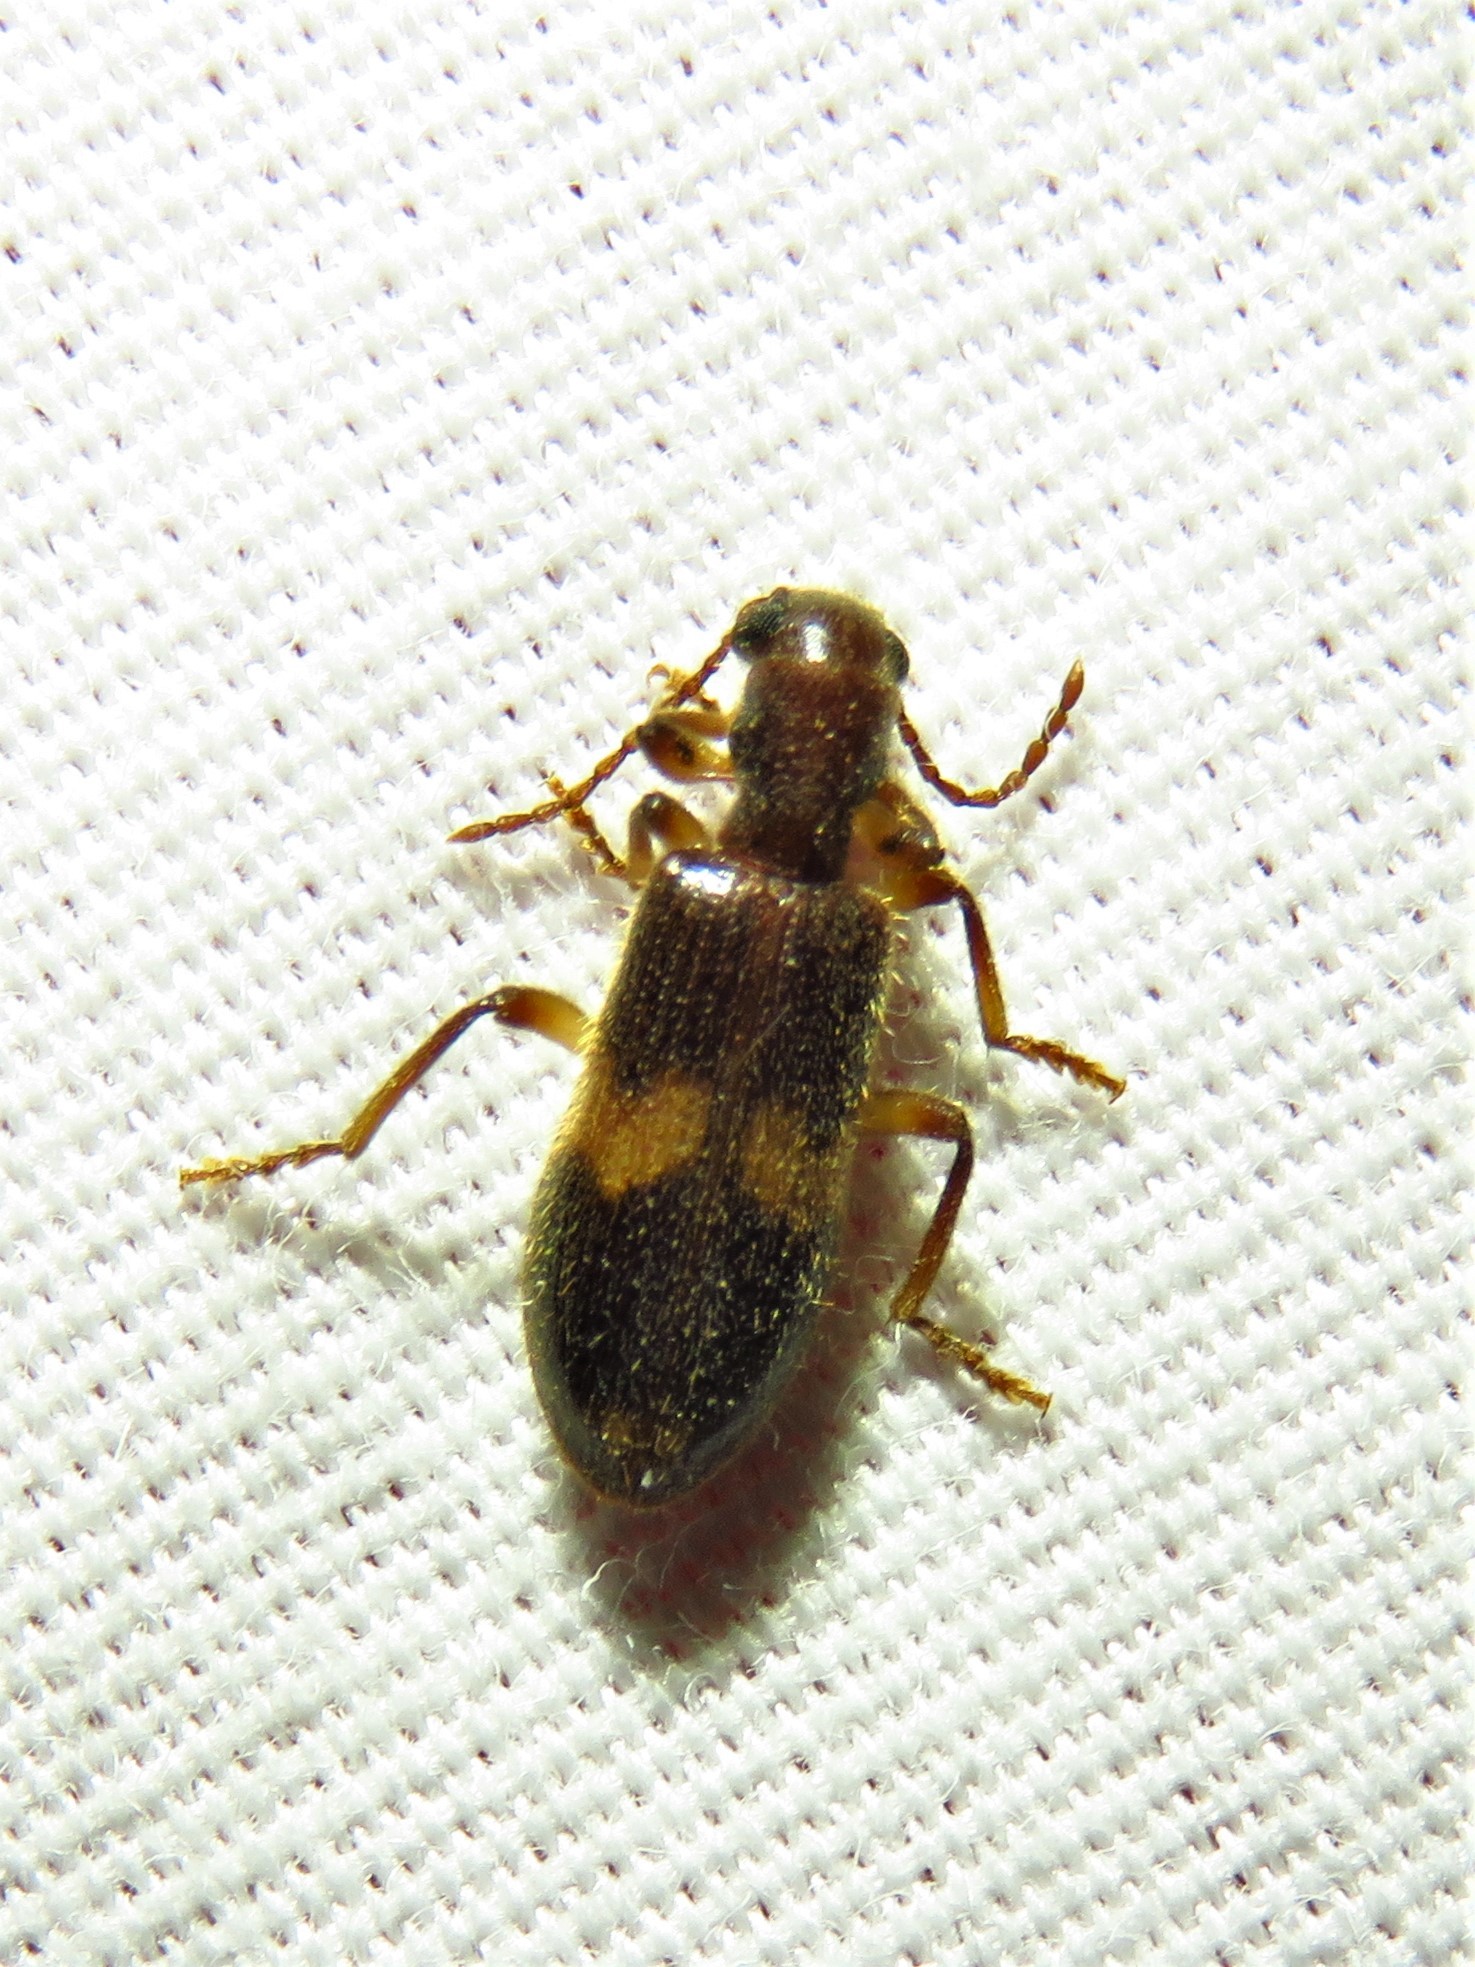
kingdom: Animalia
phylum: Arthropoda
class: Insecta
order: Coleoptera
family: Cleridae
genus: Cymatodera
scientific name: Cymatodera fuscula
